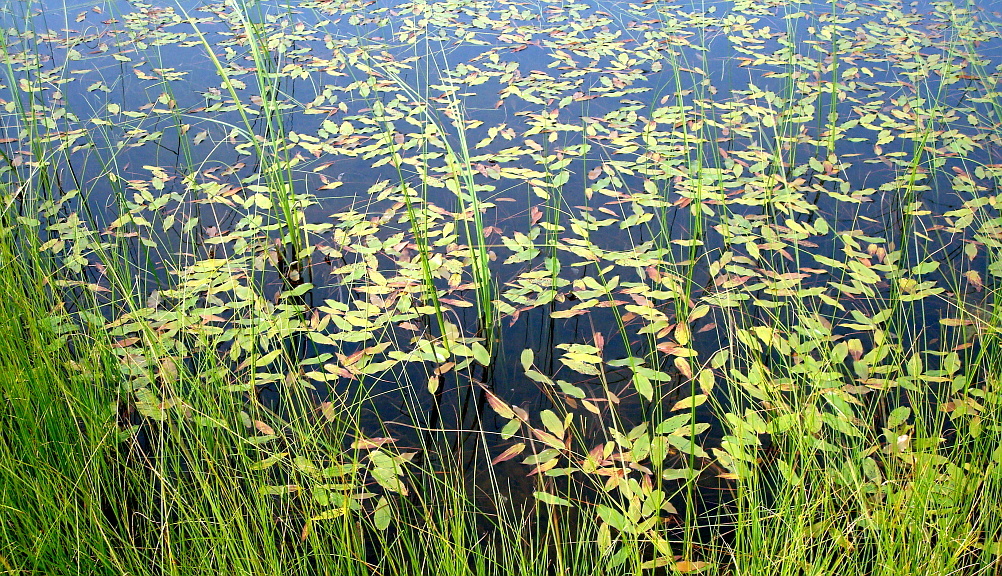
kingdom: Plantae
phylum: Tracheophyta
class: Liliopsida
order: Alismatales
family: Potamogetonaceae
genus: Potamogeton
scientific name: Potamogeton natans
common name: Broad-leaved pondweed
